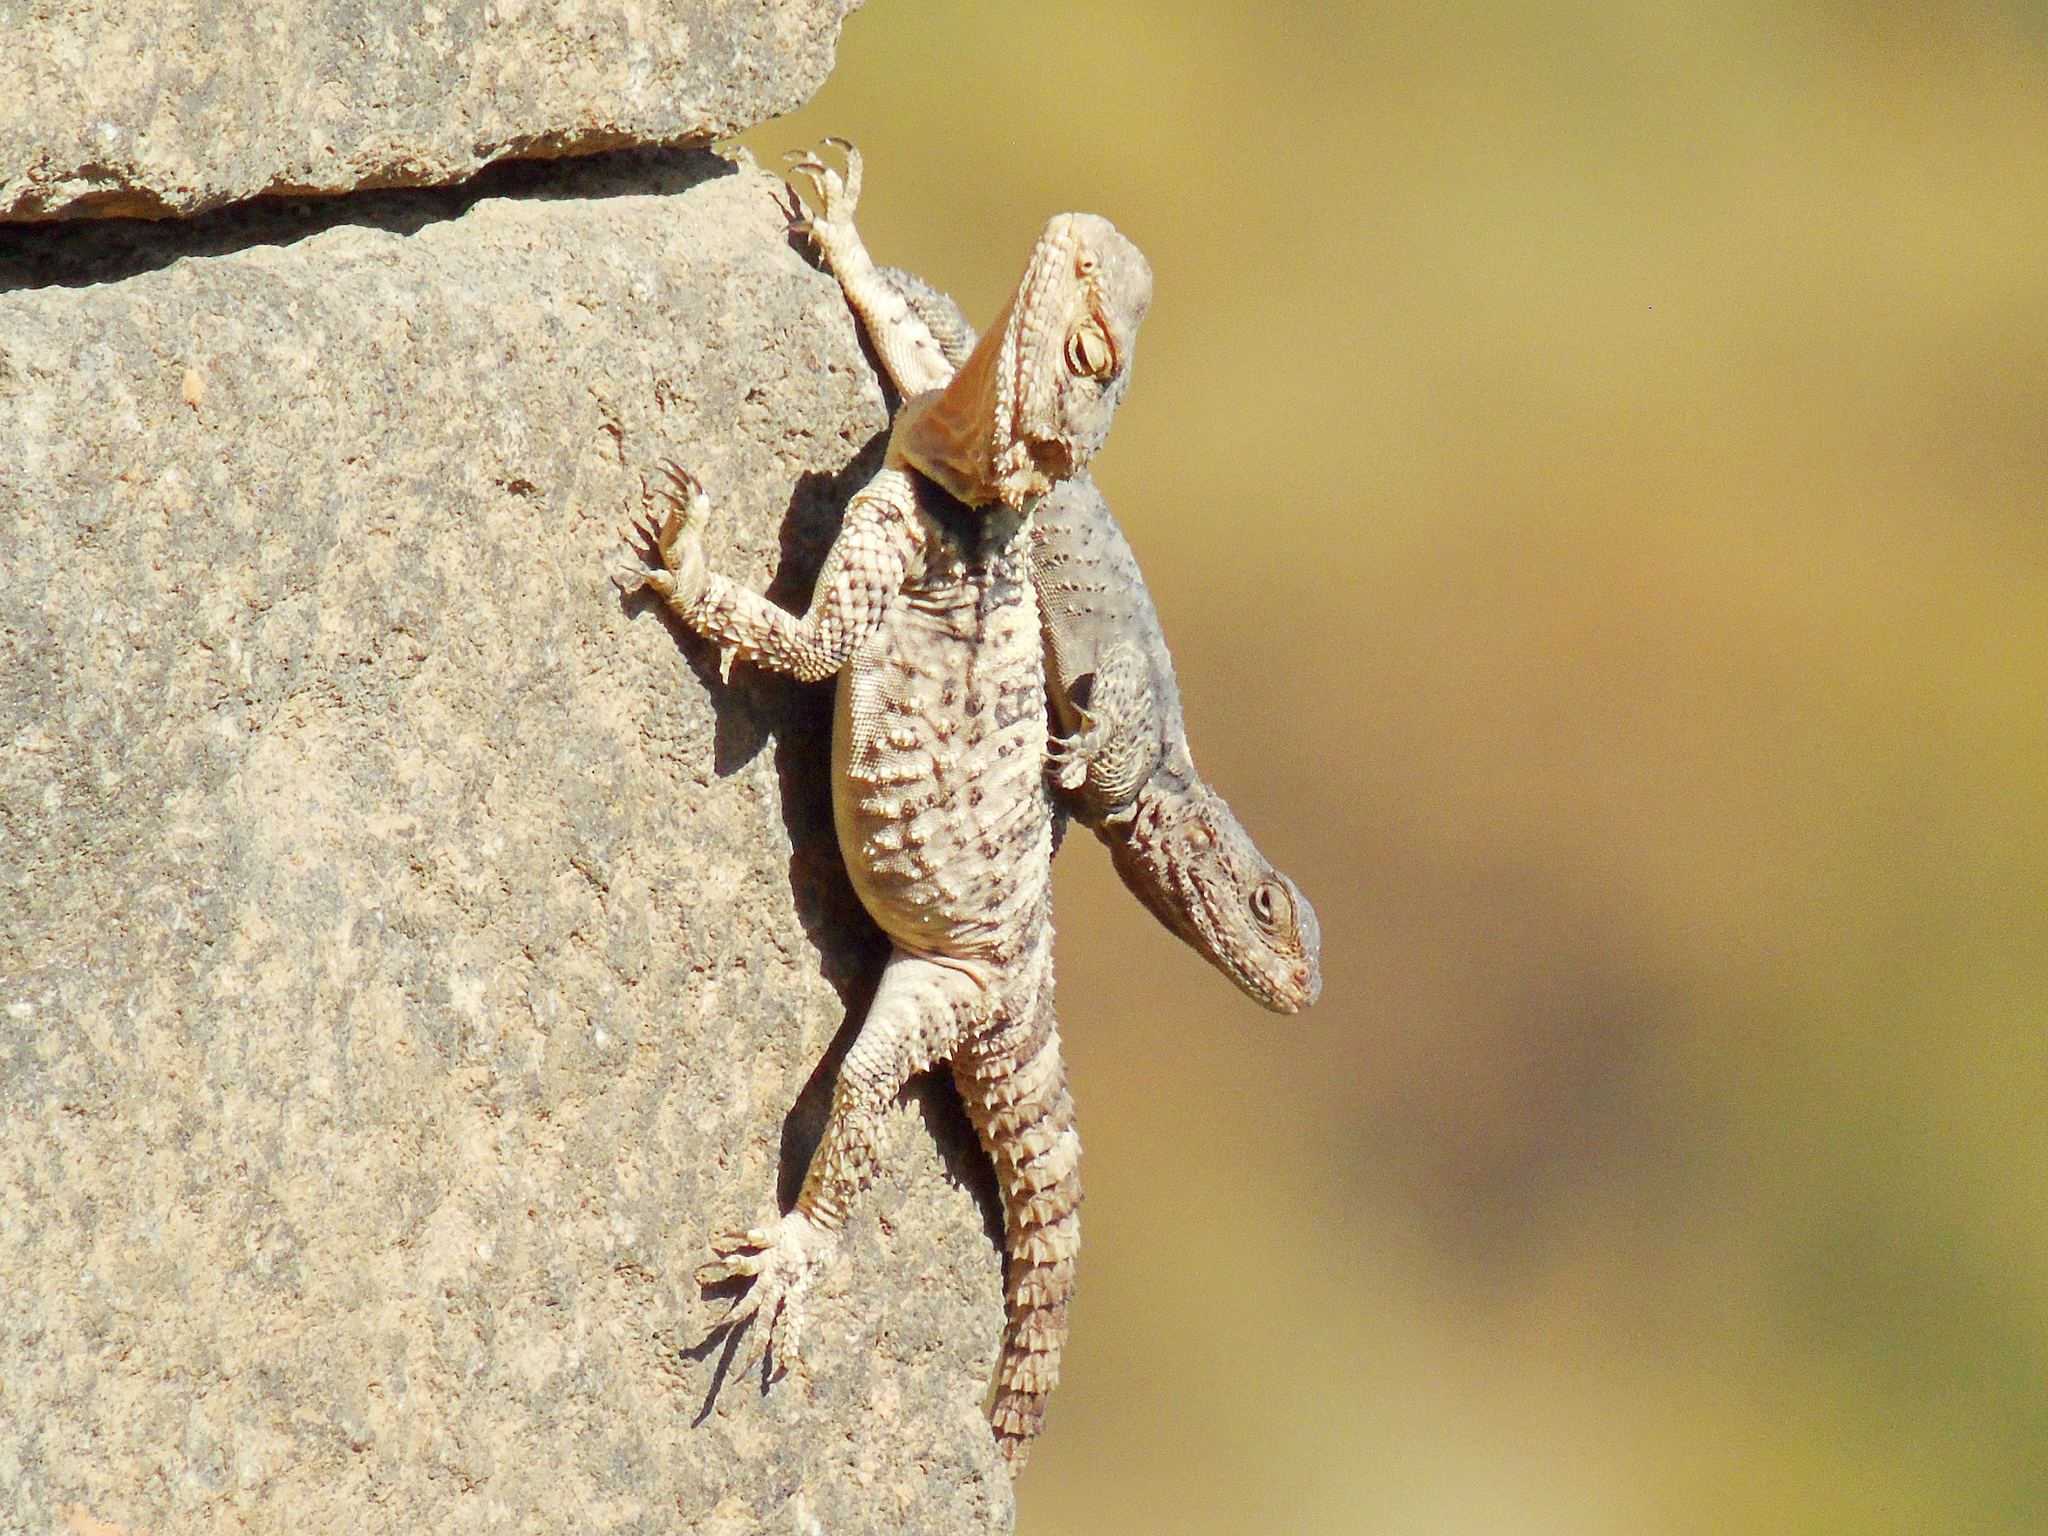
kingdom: Animalia
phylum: Chordata
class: Squamata
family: Agamidae
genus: Stellagama
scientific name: Stellagama stellio
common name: Starred agama
